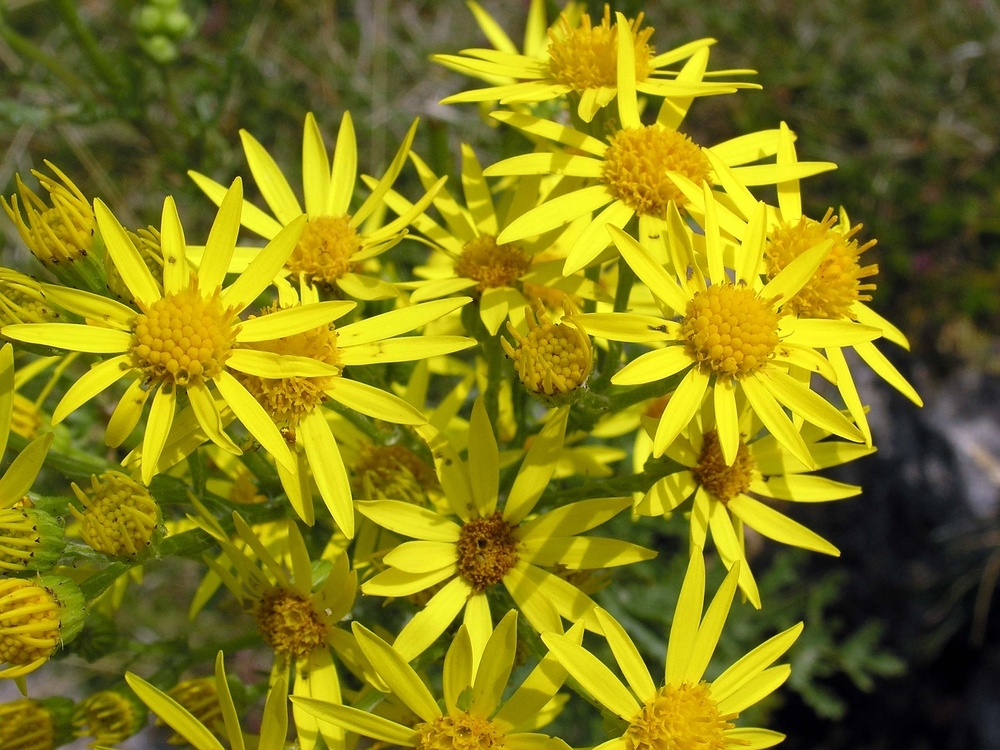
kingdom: Plantae
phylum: Tracheophyta
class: Magnoliopsida
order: Asterales
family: Asteraceae
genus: Jacobaea
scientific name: Jacobaea vulgaris
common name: Stinking willie
